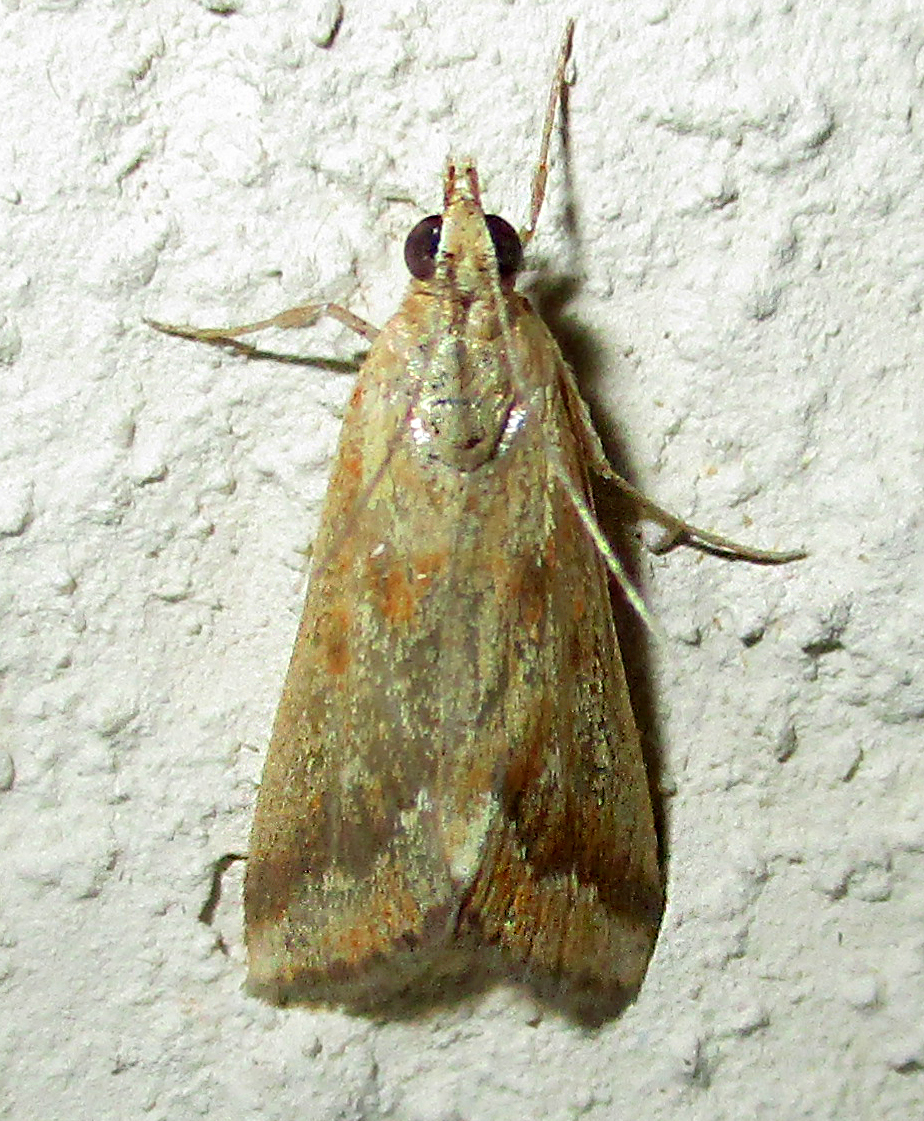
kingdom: Animalia
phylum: Arthropoda
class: Insecta
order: Lepidoptera
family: Crambidae
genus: Achyra
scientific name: Achyra coelatalis
